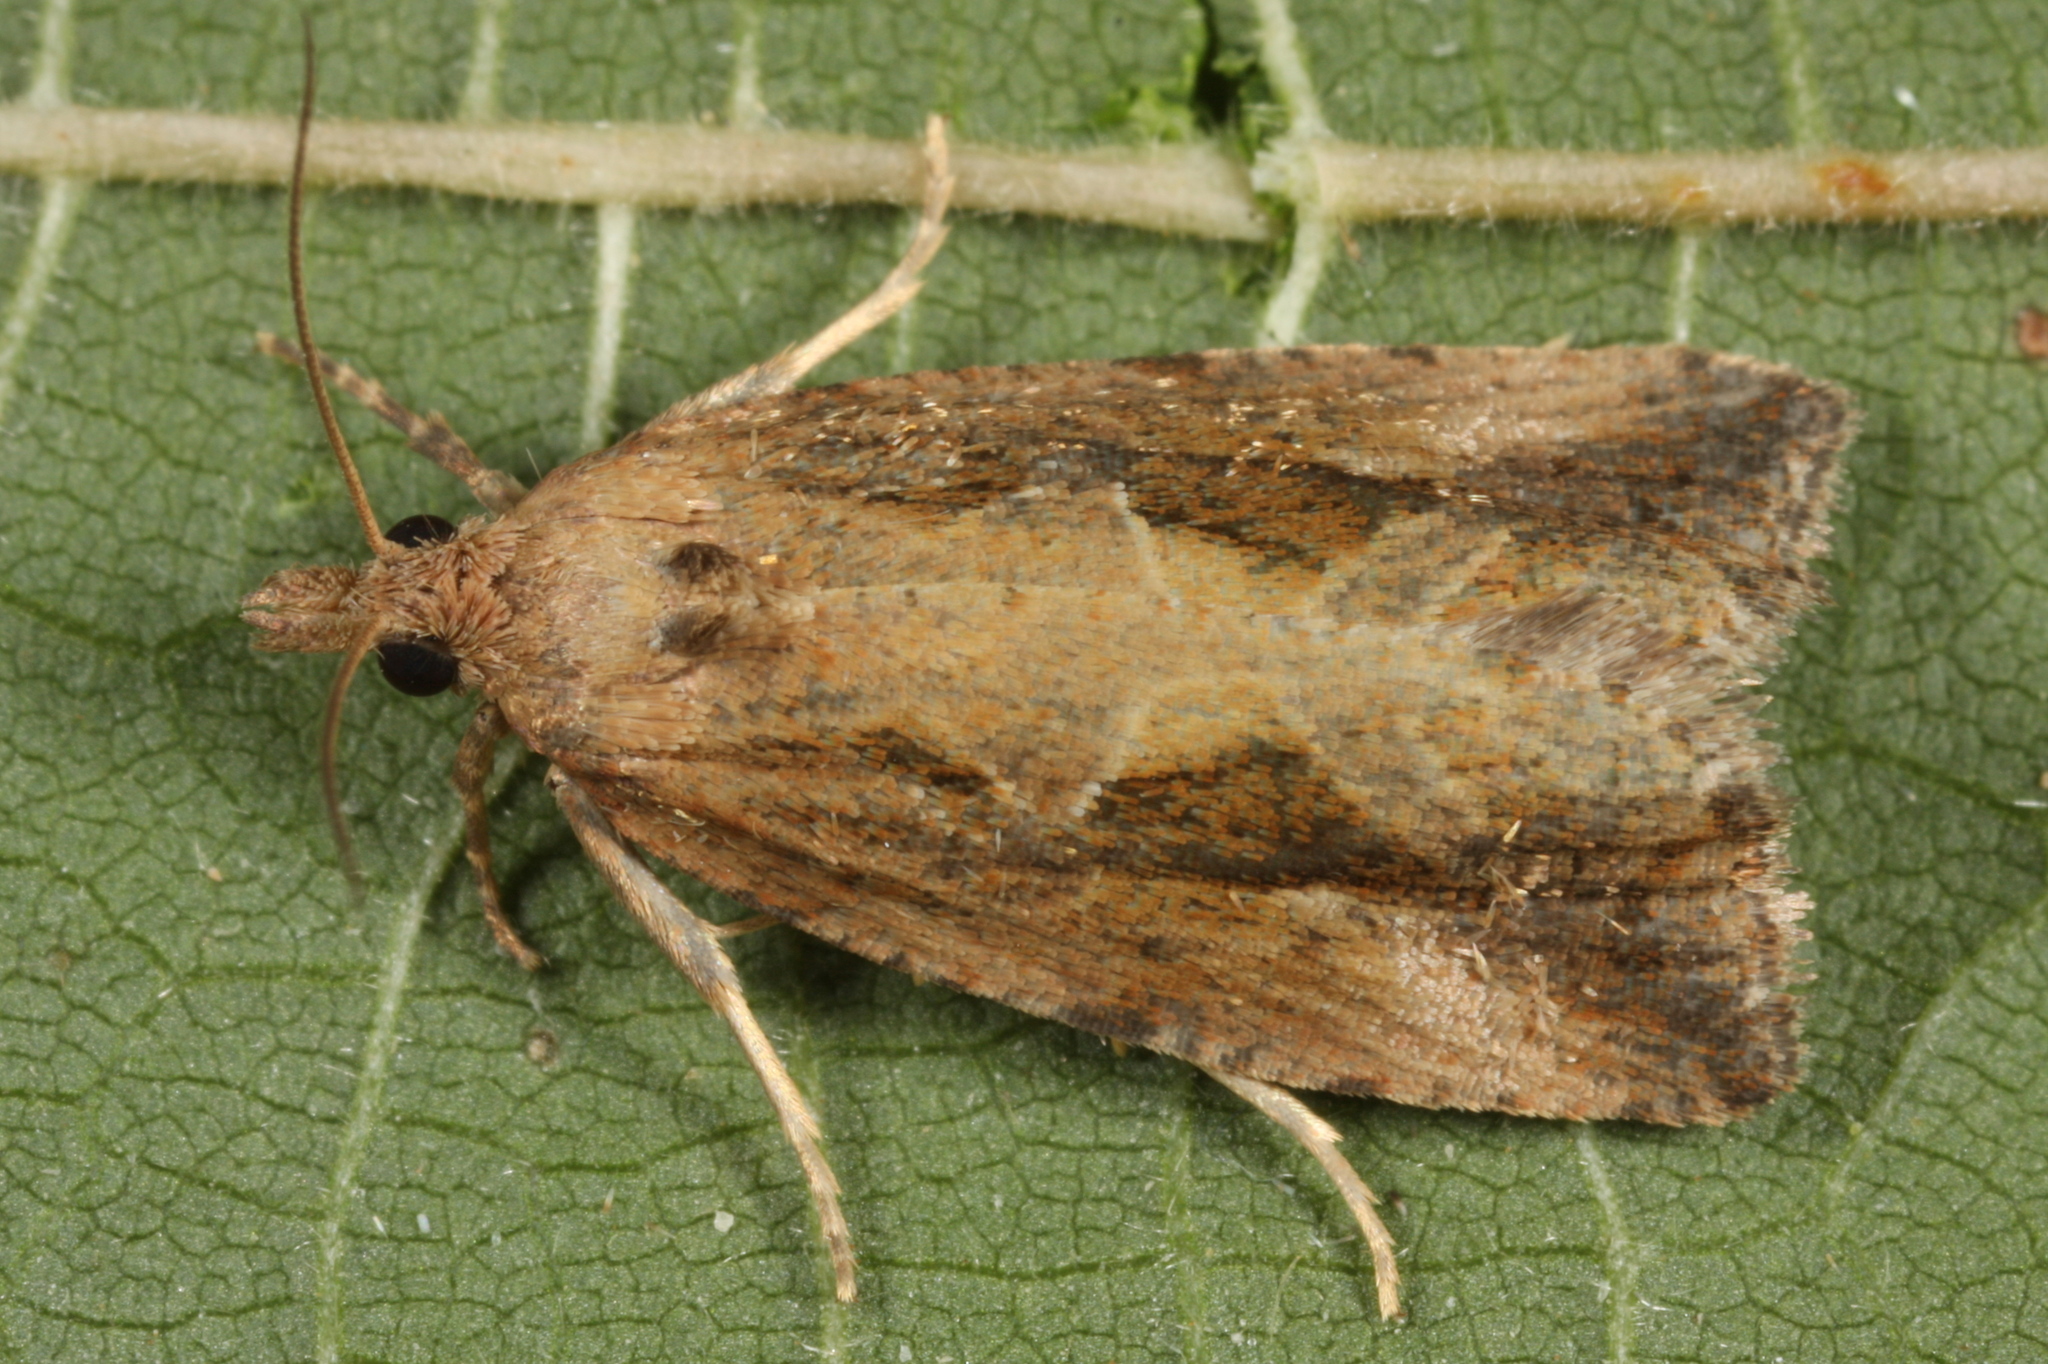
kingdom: Animalia
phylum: Arthropoda
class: Insecta
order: Lepidoptera
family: Tortricidae
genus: Endothenia
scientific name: Endothenia quadrimaculana
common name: Tortricid moth
